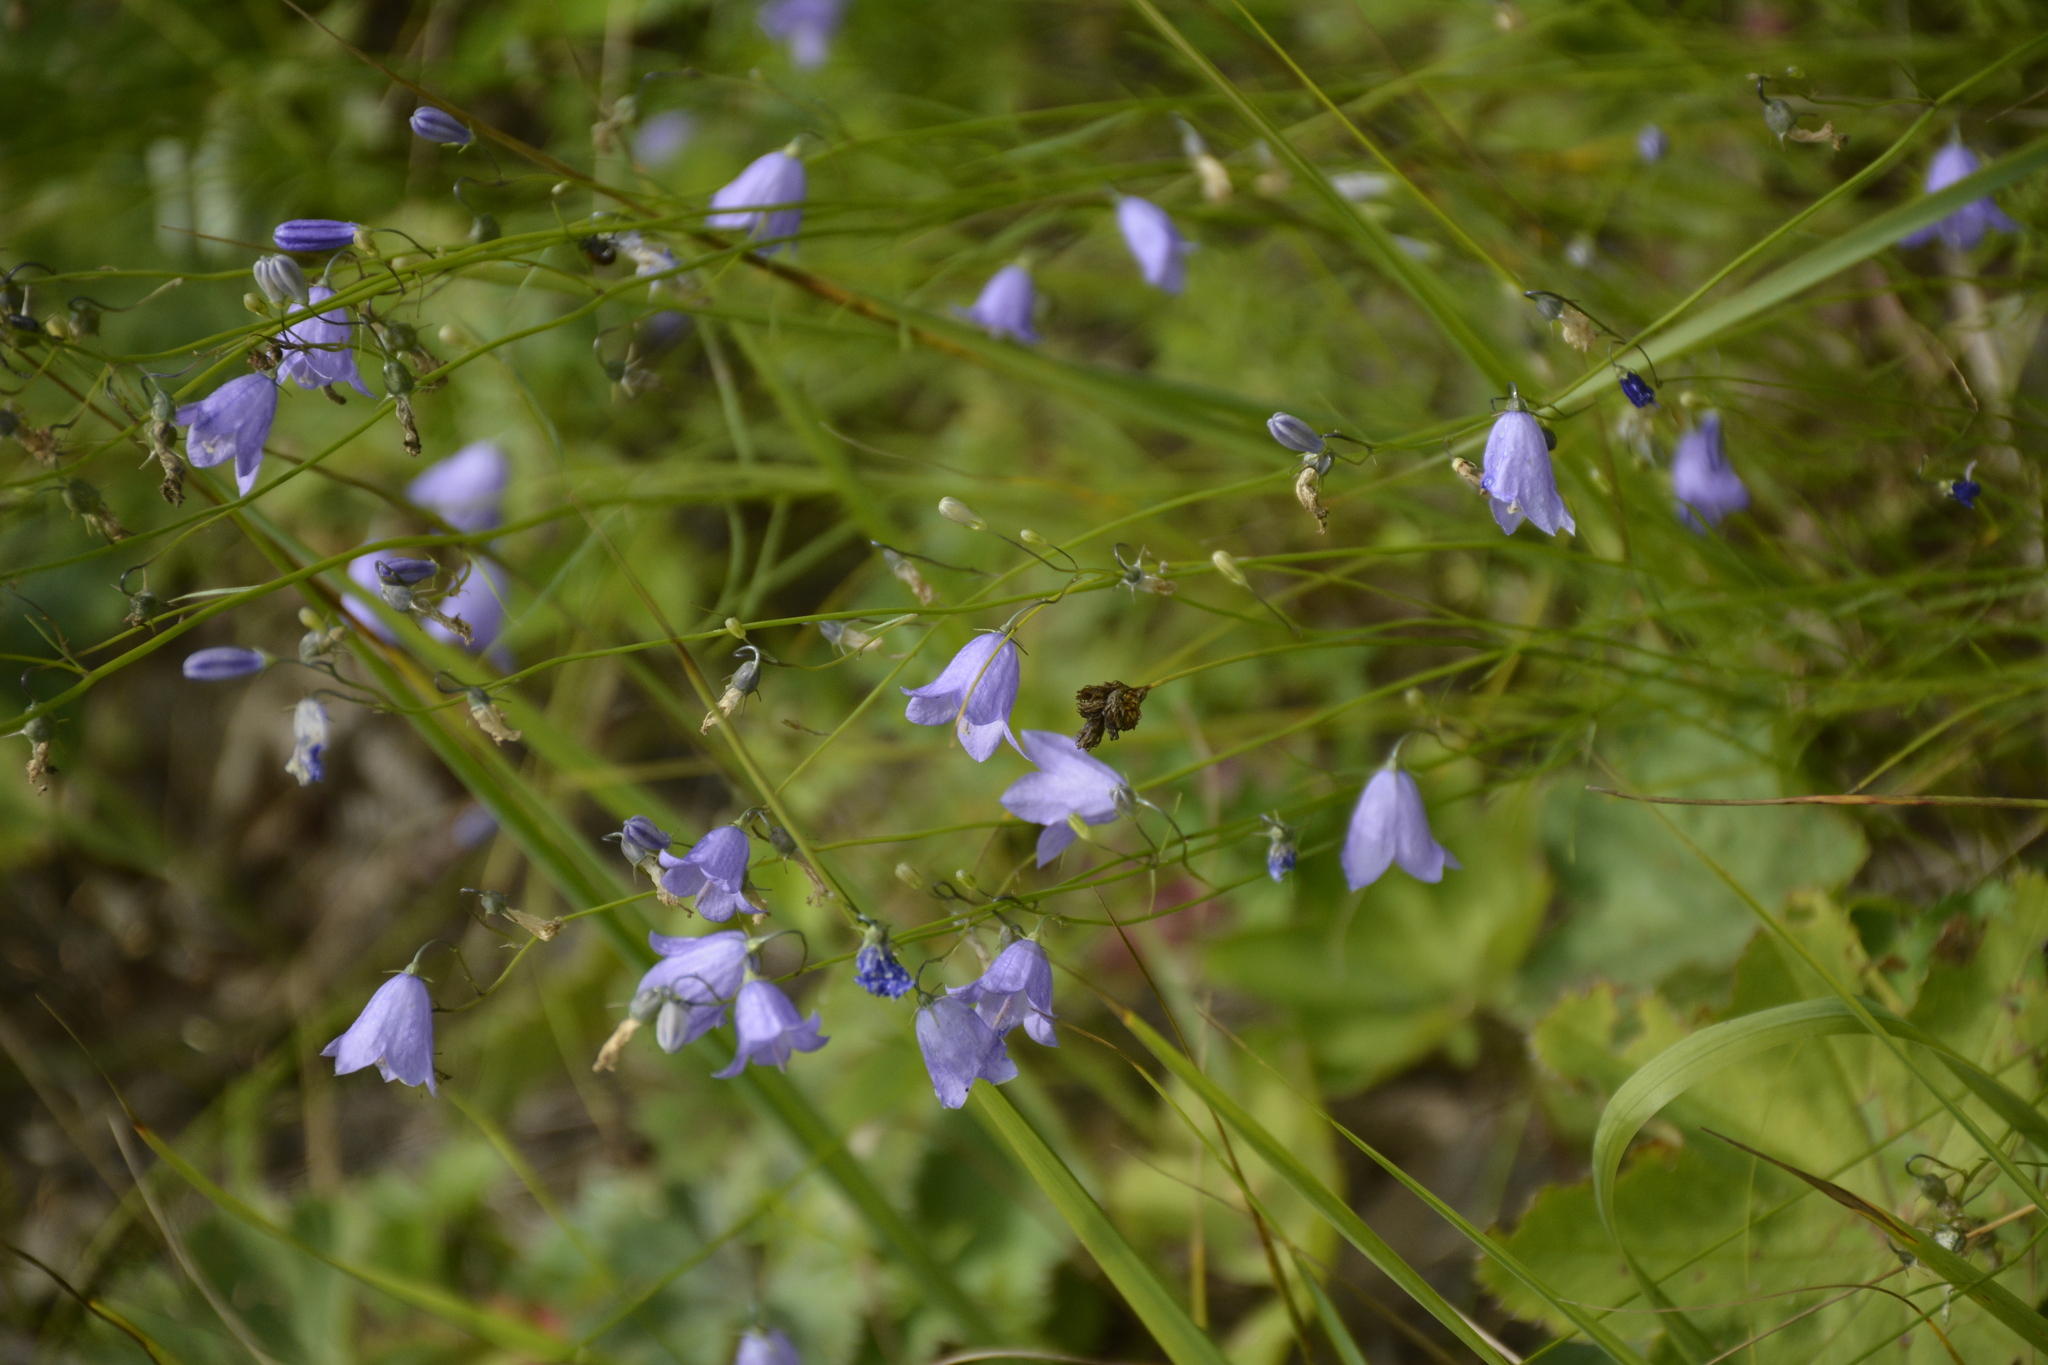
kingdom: Plantae
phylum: Tracheophyta
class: Magnoliopsida
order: Asterales
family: Campanulaceae
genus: Campanula
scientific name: Campanula rotundifolia
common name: Harebell
